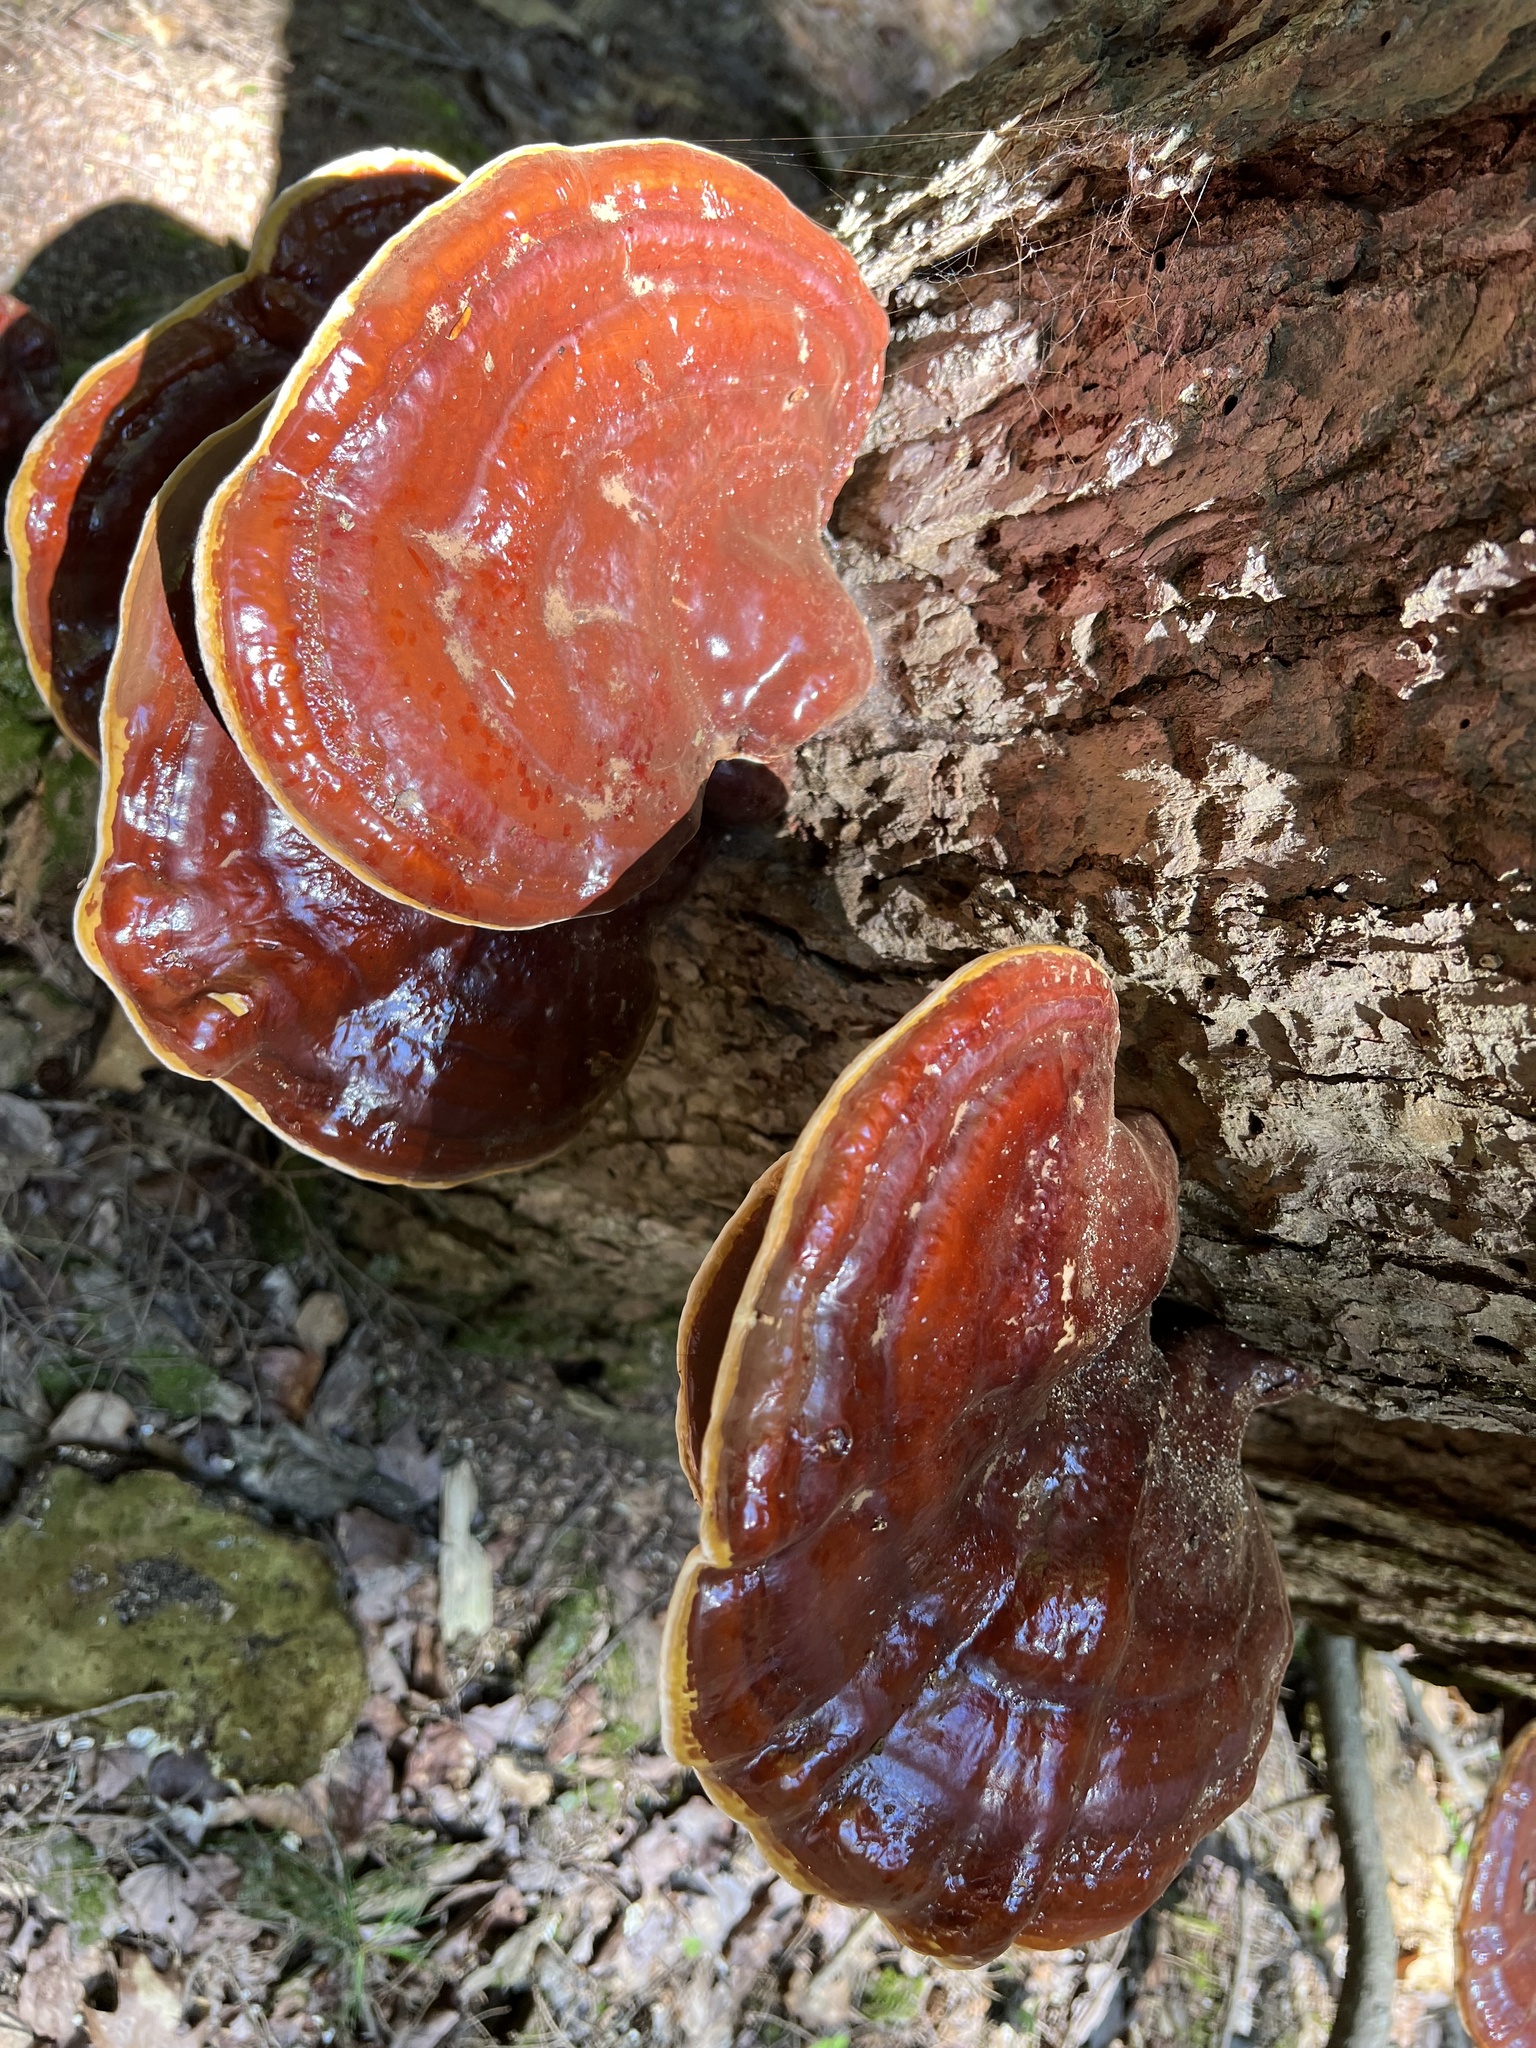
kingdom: Fungi
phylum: Basidiomycota
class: Agaricomycetes
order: Polyporales
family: Polyporaceae
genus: Ganoderma
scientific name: Ganoderma tsugae
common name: Hemlock varnish shelf
